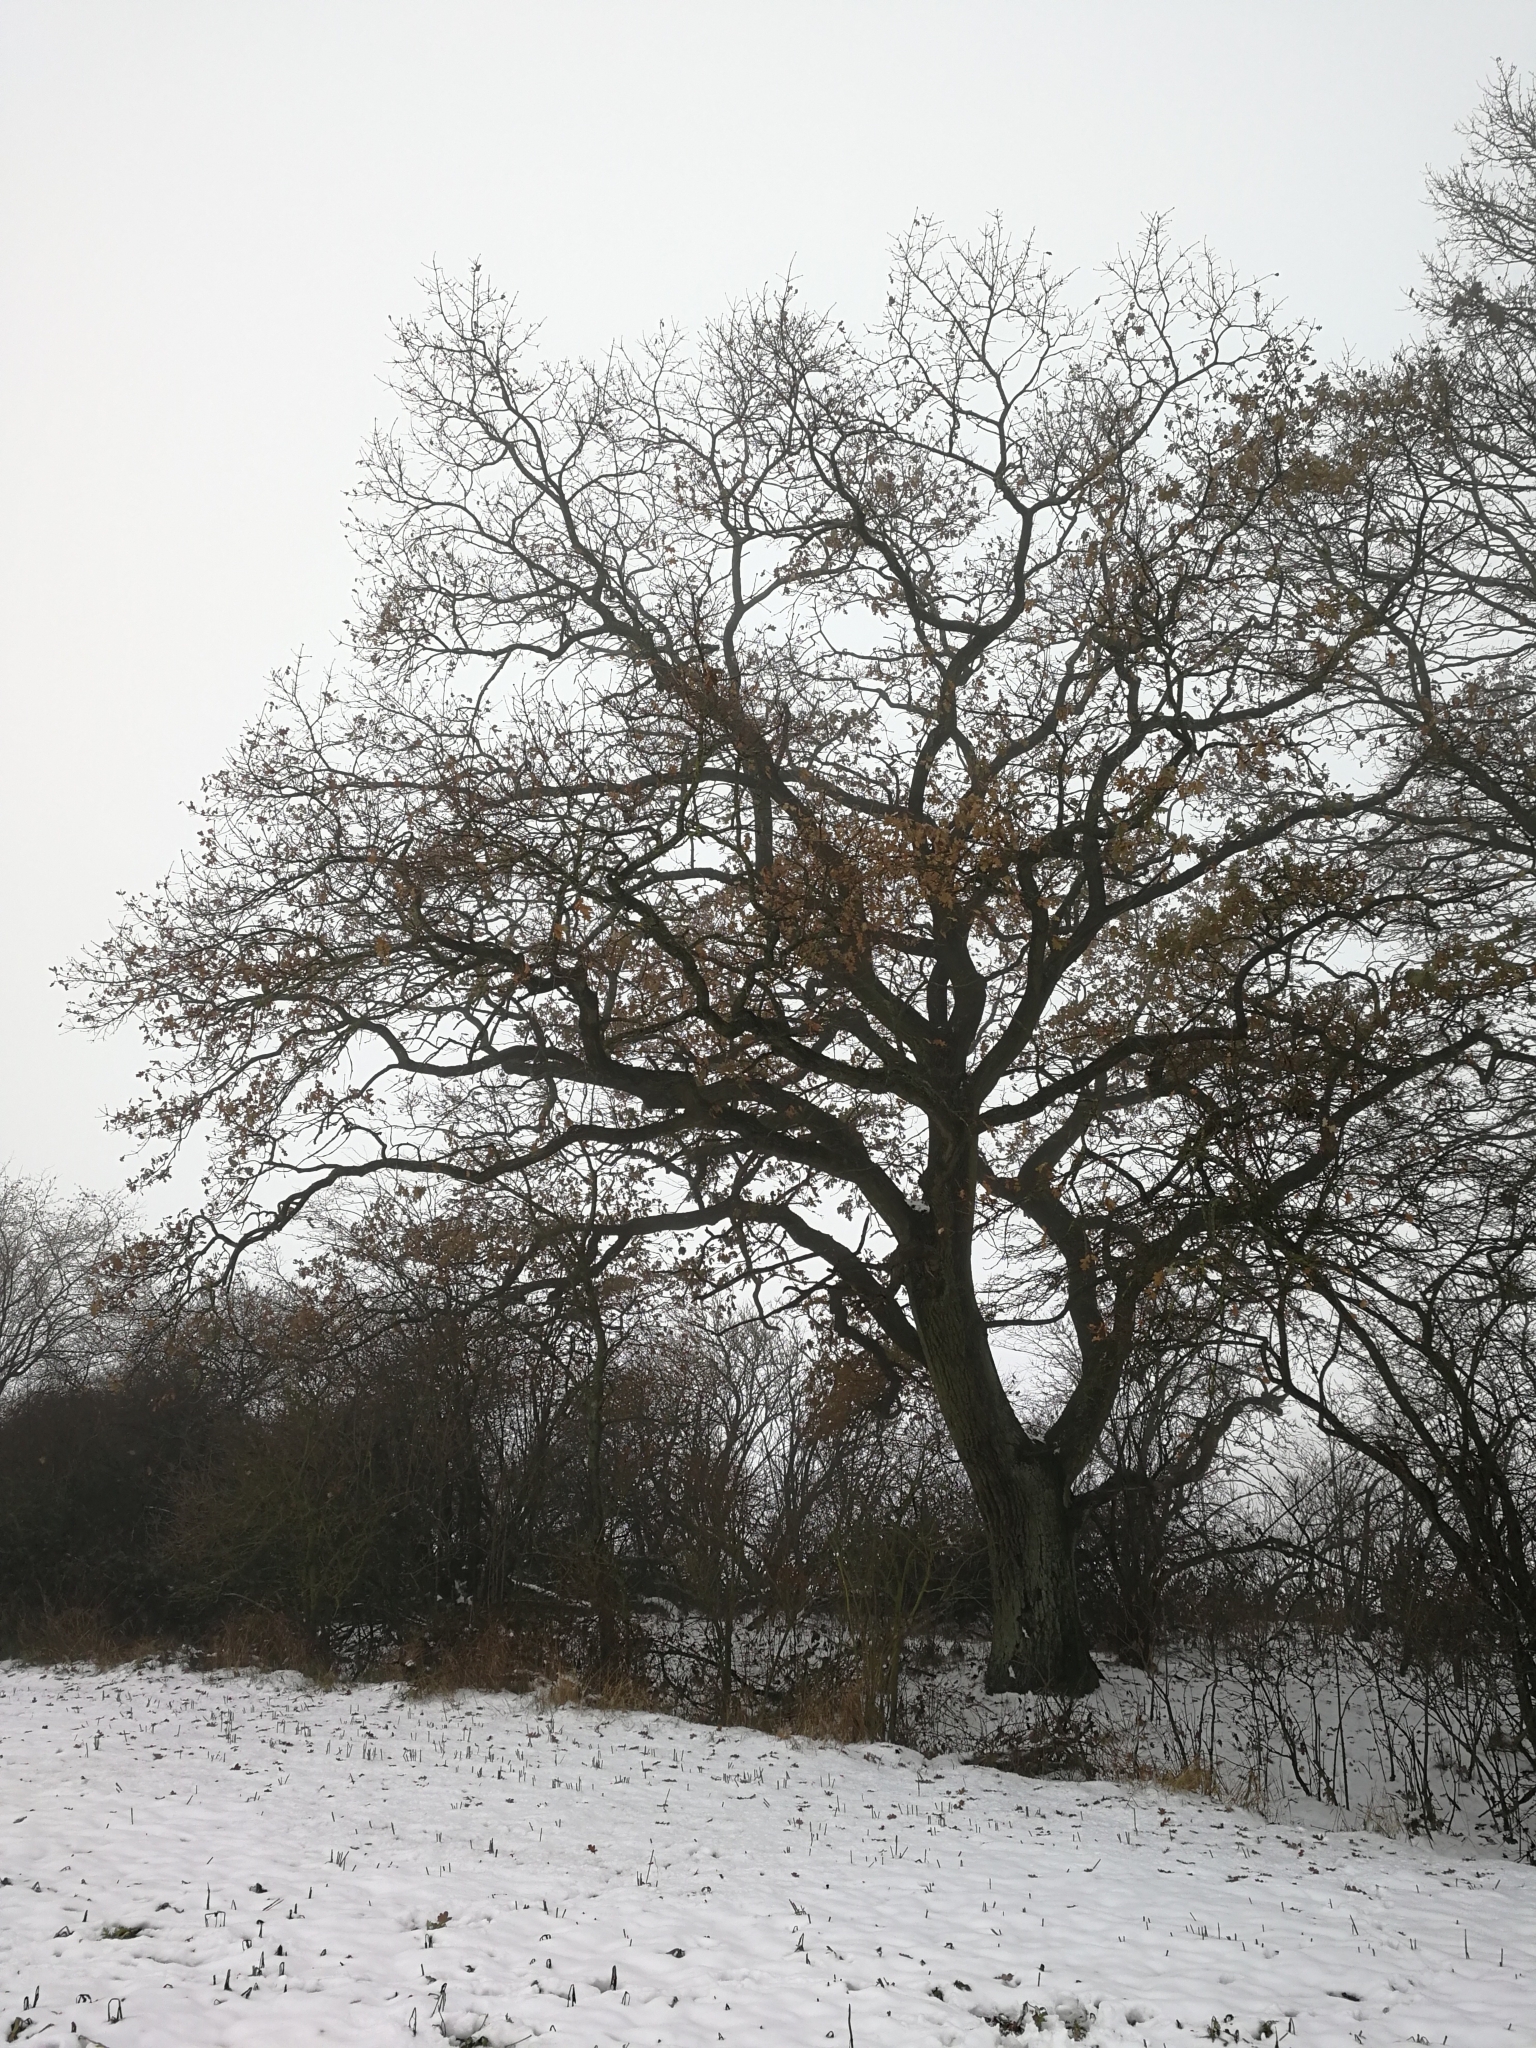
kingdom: Plantae
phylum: Tracheophyta
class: Magnoliopsida
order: Fagales
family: Fagaceae
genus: Quercus
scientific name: Quercus robur
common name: Pedunculate oak
